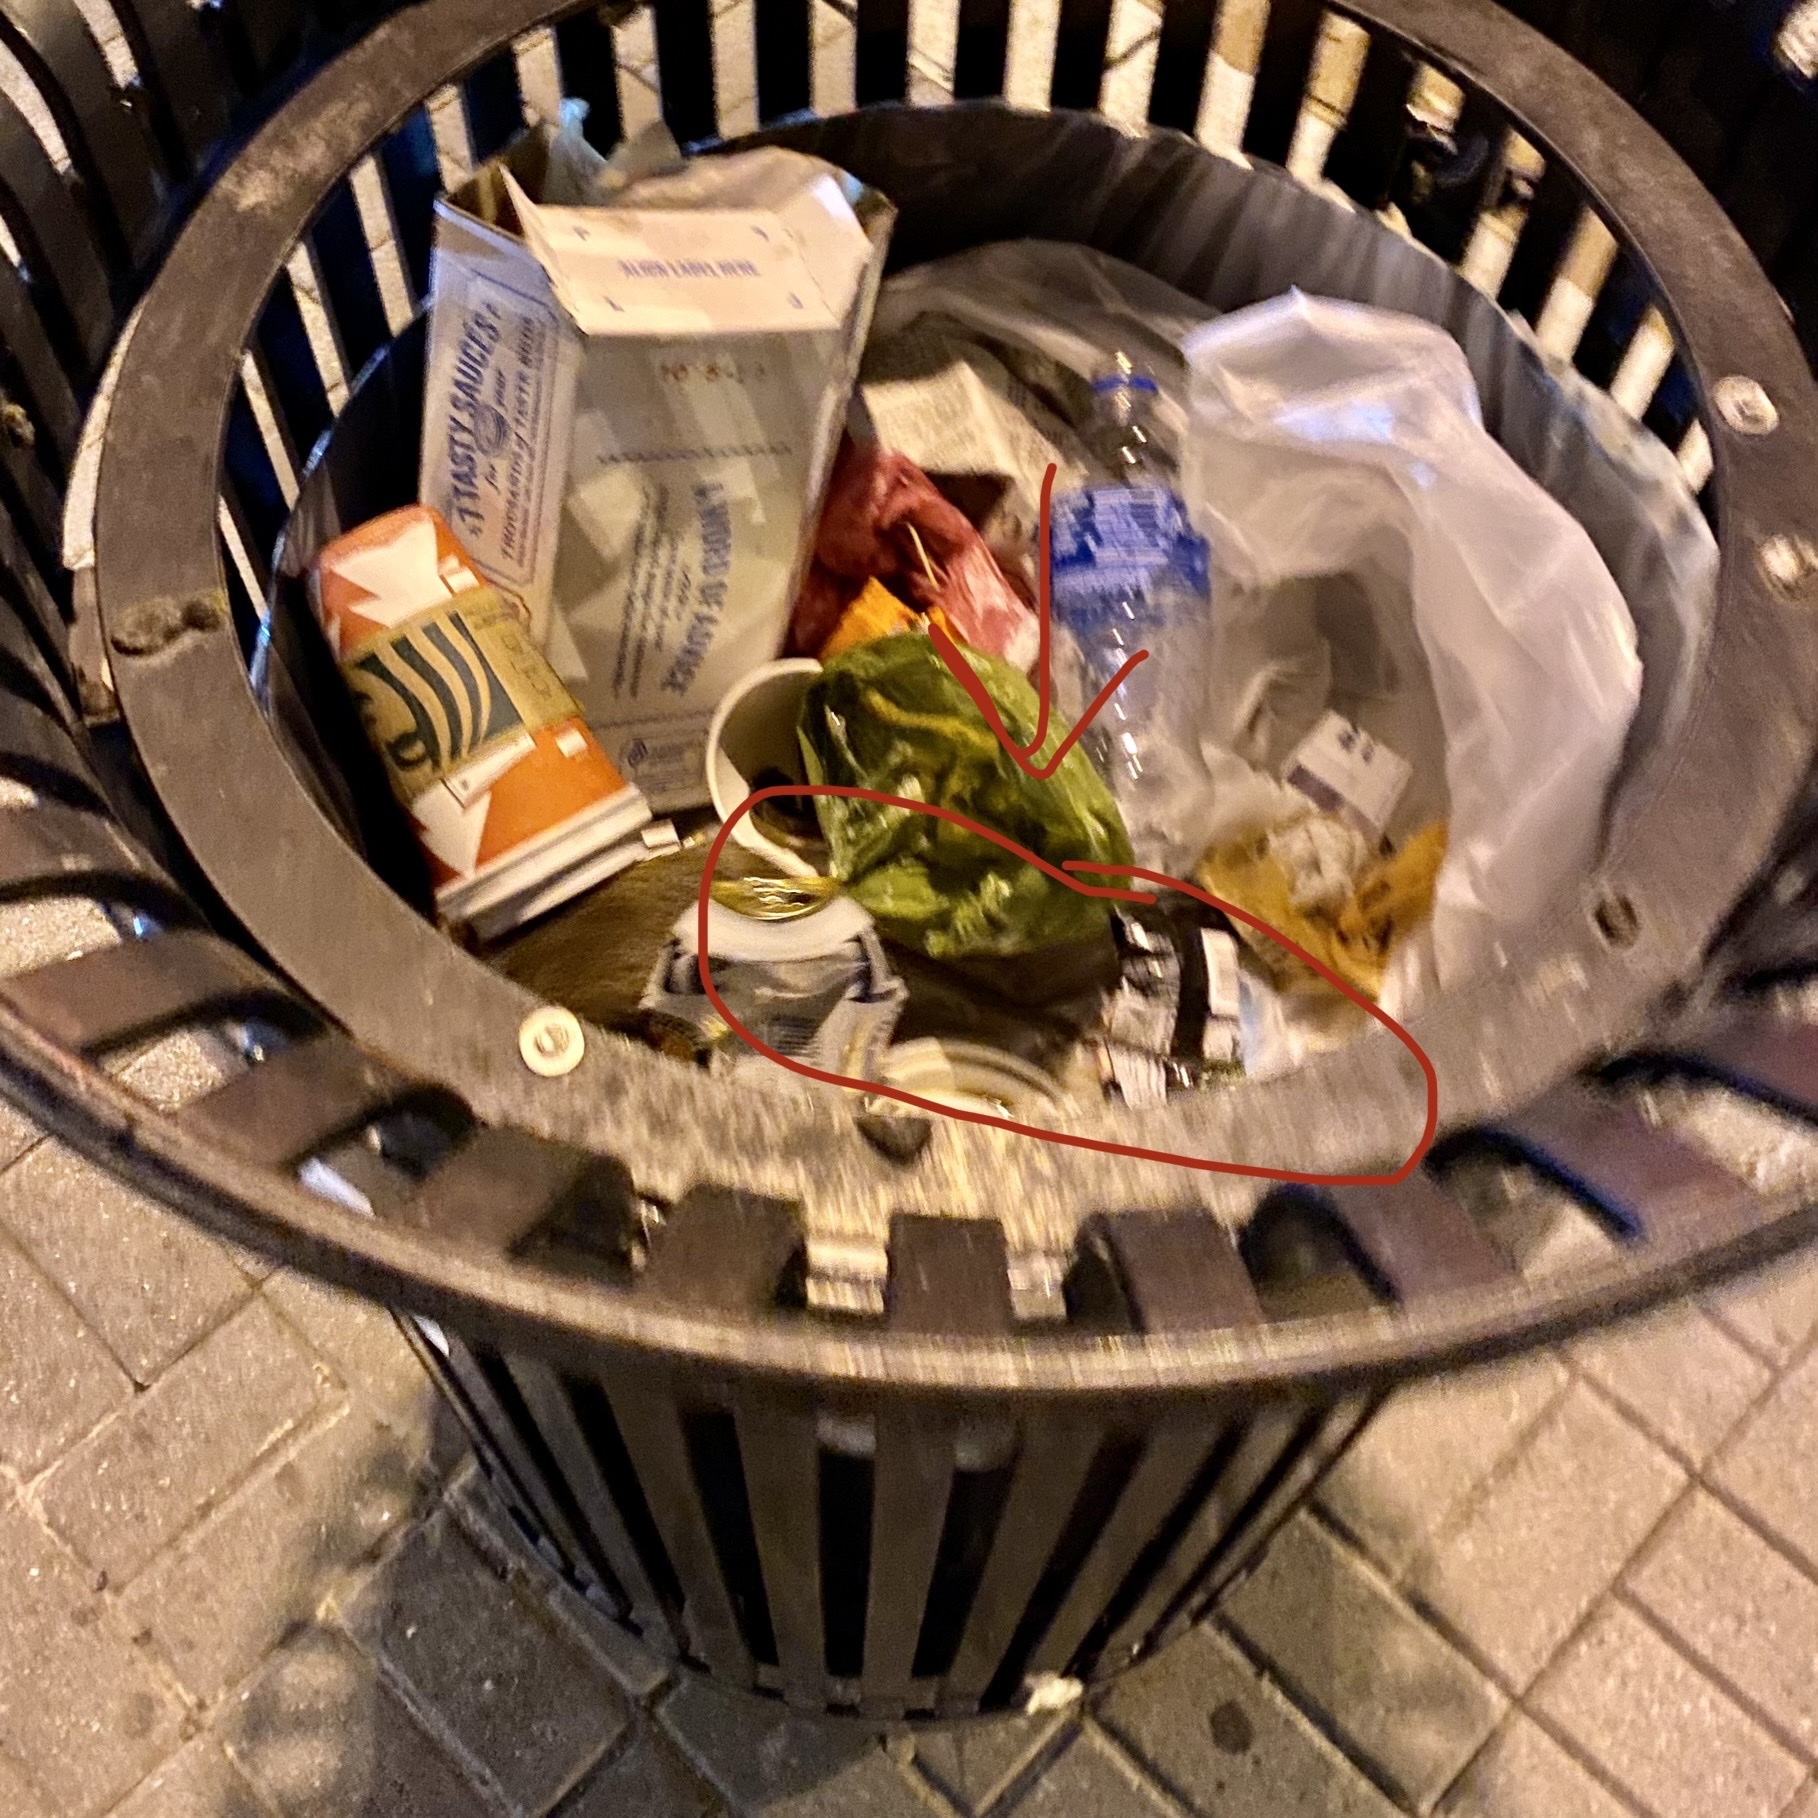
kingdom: Animalia
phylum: Chordata
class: Mammalia
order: Rodentia
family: Muridae
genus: Rattus
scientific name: Rattus norvegicus
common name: Brown rat
